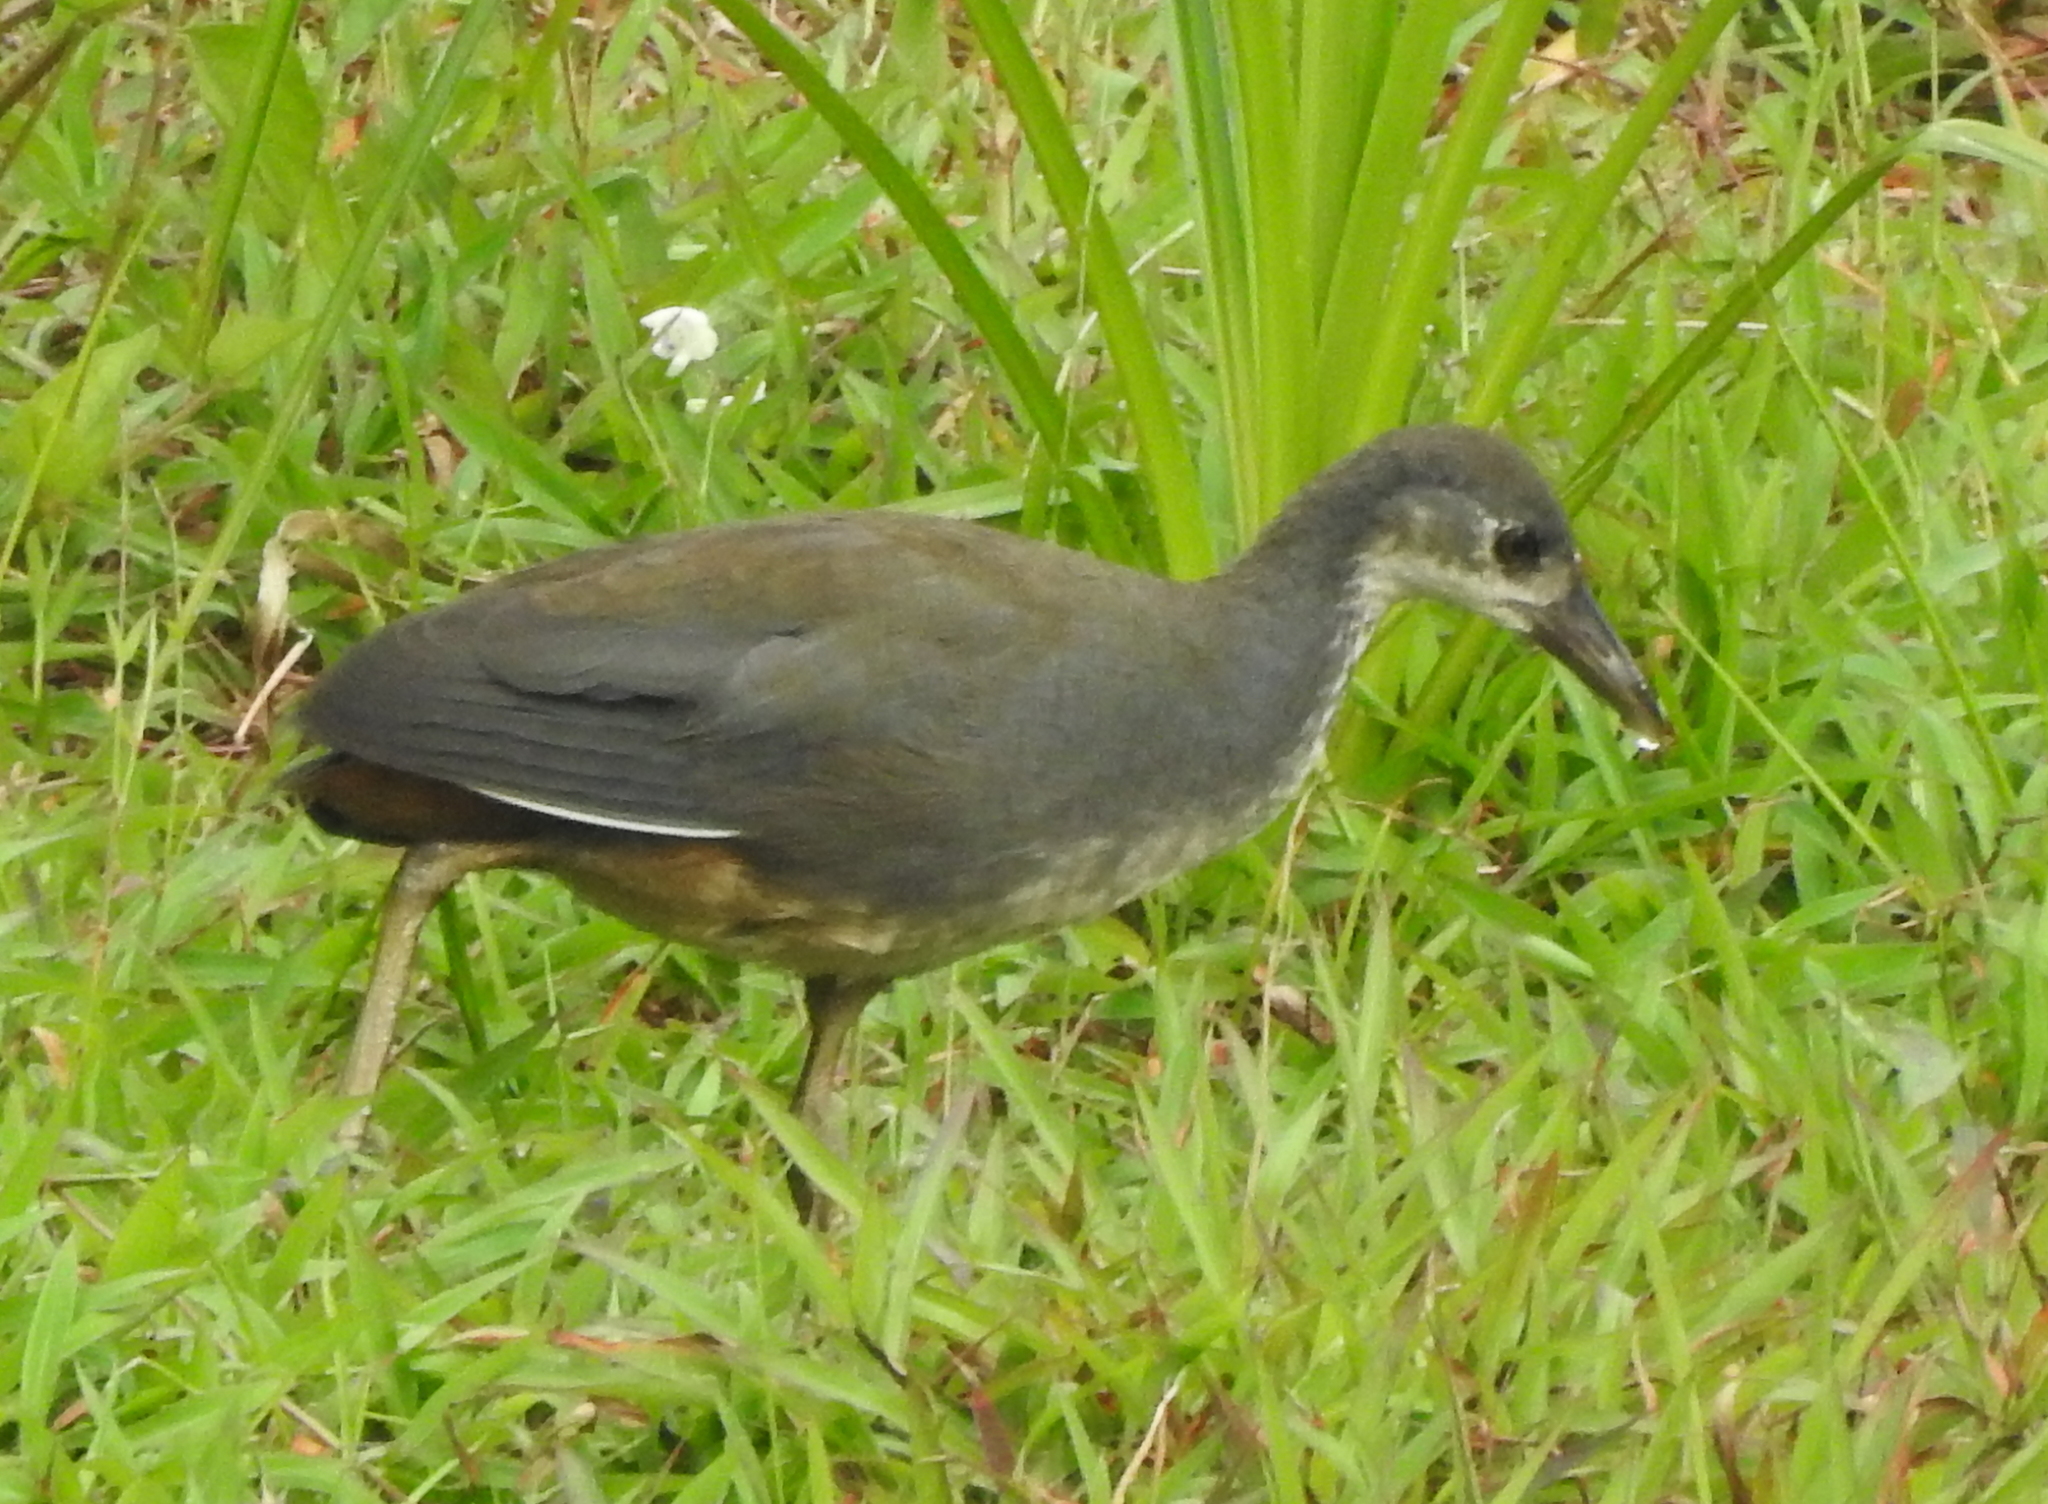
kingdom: Animalia
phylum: Chordata
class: Aves
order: Gruiformes
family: Rallidae
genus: Amaurornis
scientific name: Amaurornis phoenicurus
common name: White-breasted waterhen
